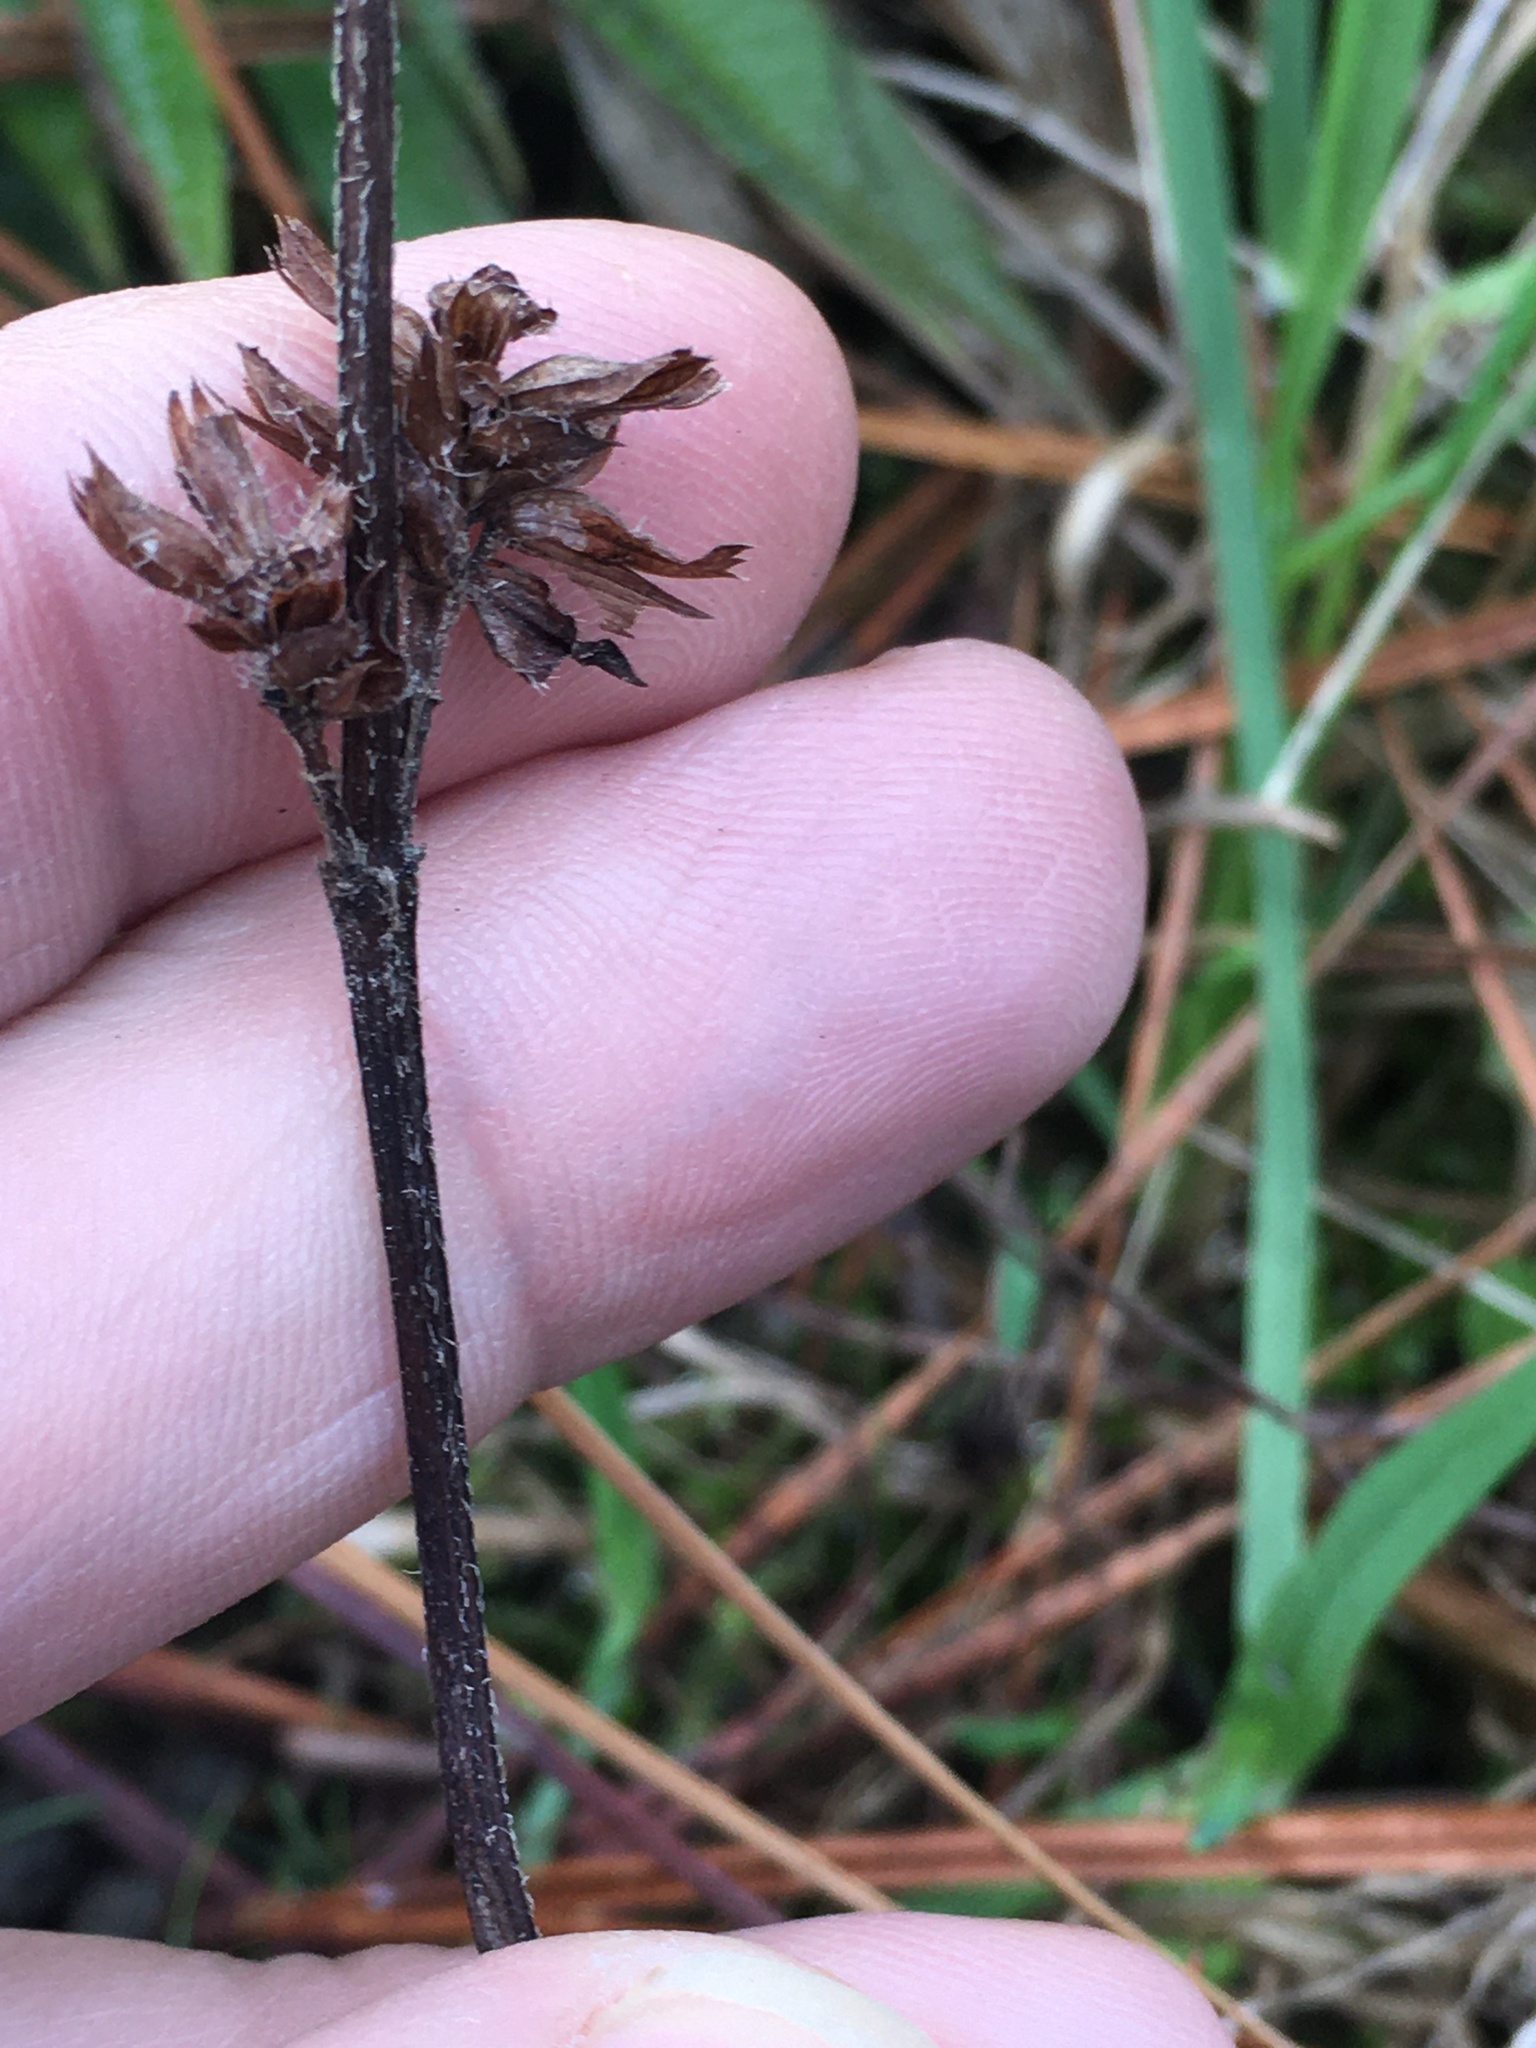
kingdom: Plantae
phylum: Tracheophyta
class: Magnoliopsida
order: Lamiales
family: Lamiaceae
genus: Prunella
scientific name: Prunella vulgaris
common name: Heal-all
